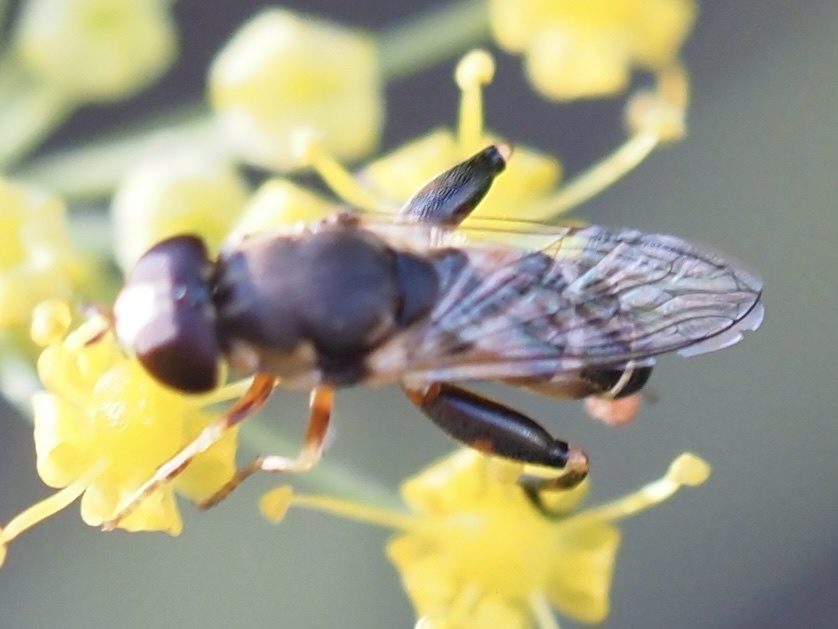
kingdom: Animalia
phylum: Arthropoda
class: Insecta
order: Diptera
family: Syrphidae
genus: Syritta
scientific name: Syritta pipiens
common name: Hover fly
